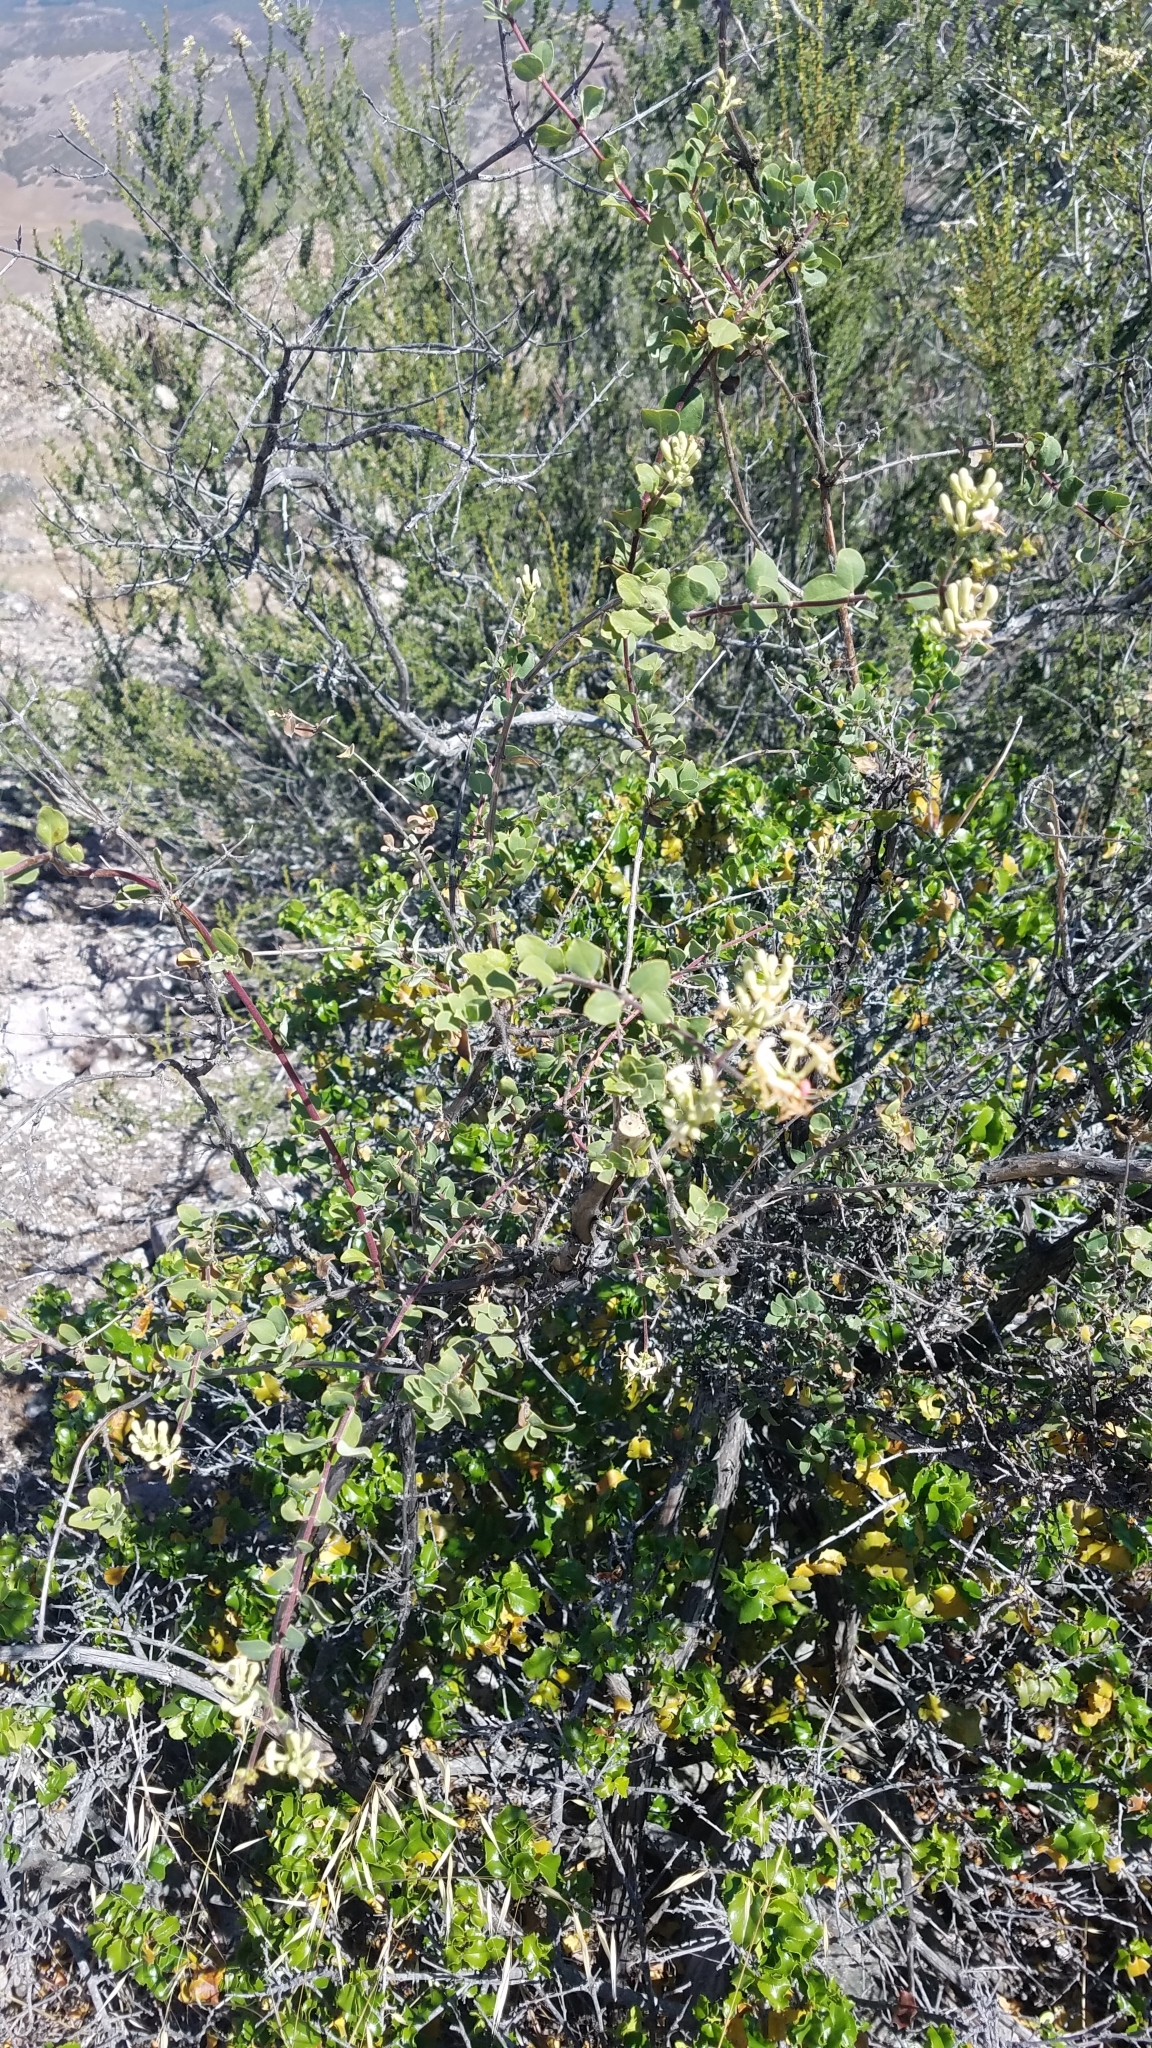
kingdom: Plantae
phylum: Tracheophyta
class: Magnoliopsida
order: Dipsacales
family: Caprifoliaceae
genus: Lonicera
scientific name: Lonicera subspicata
